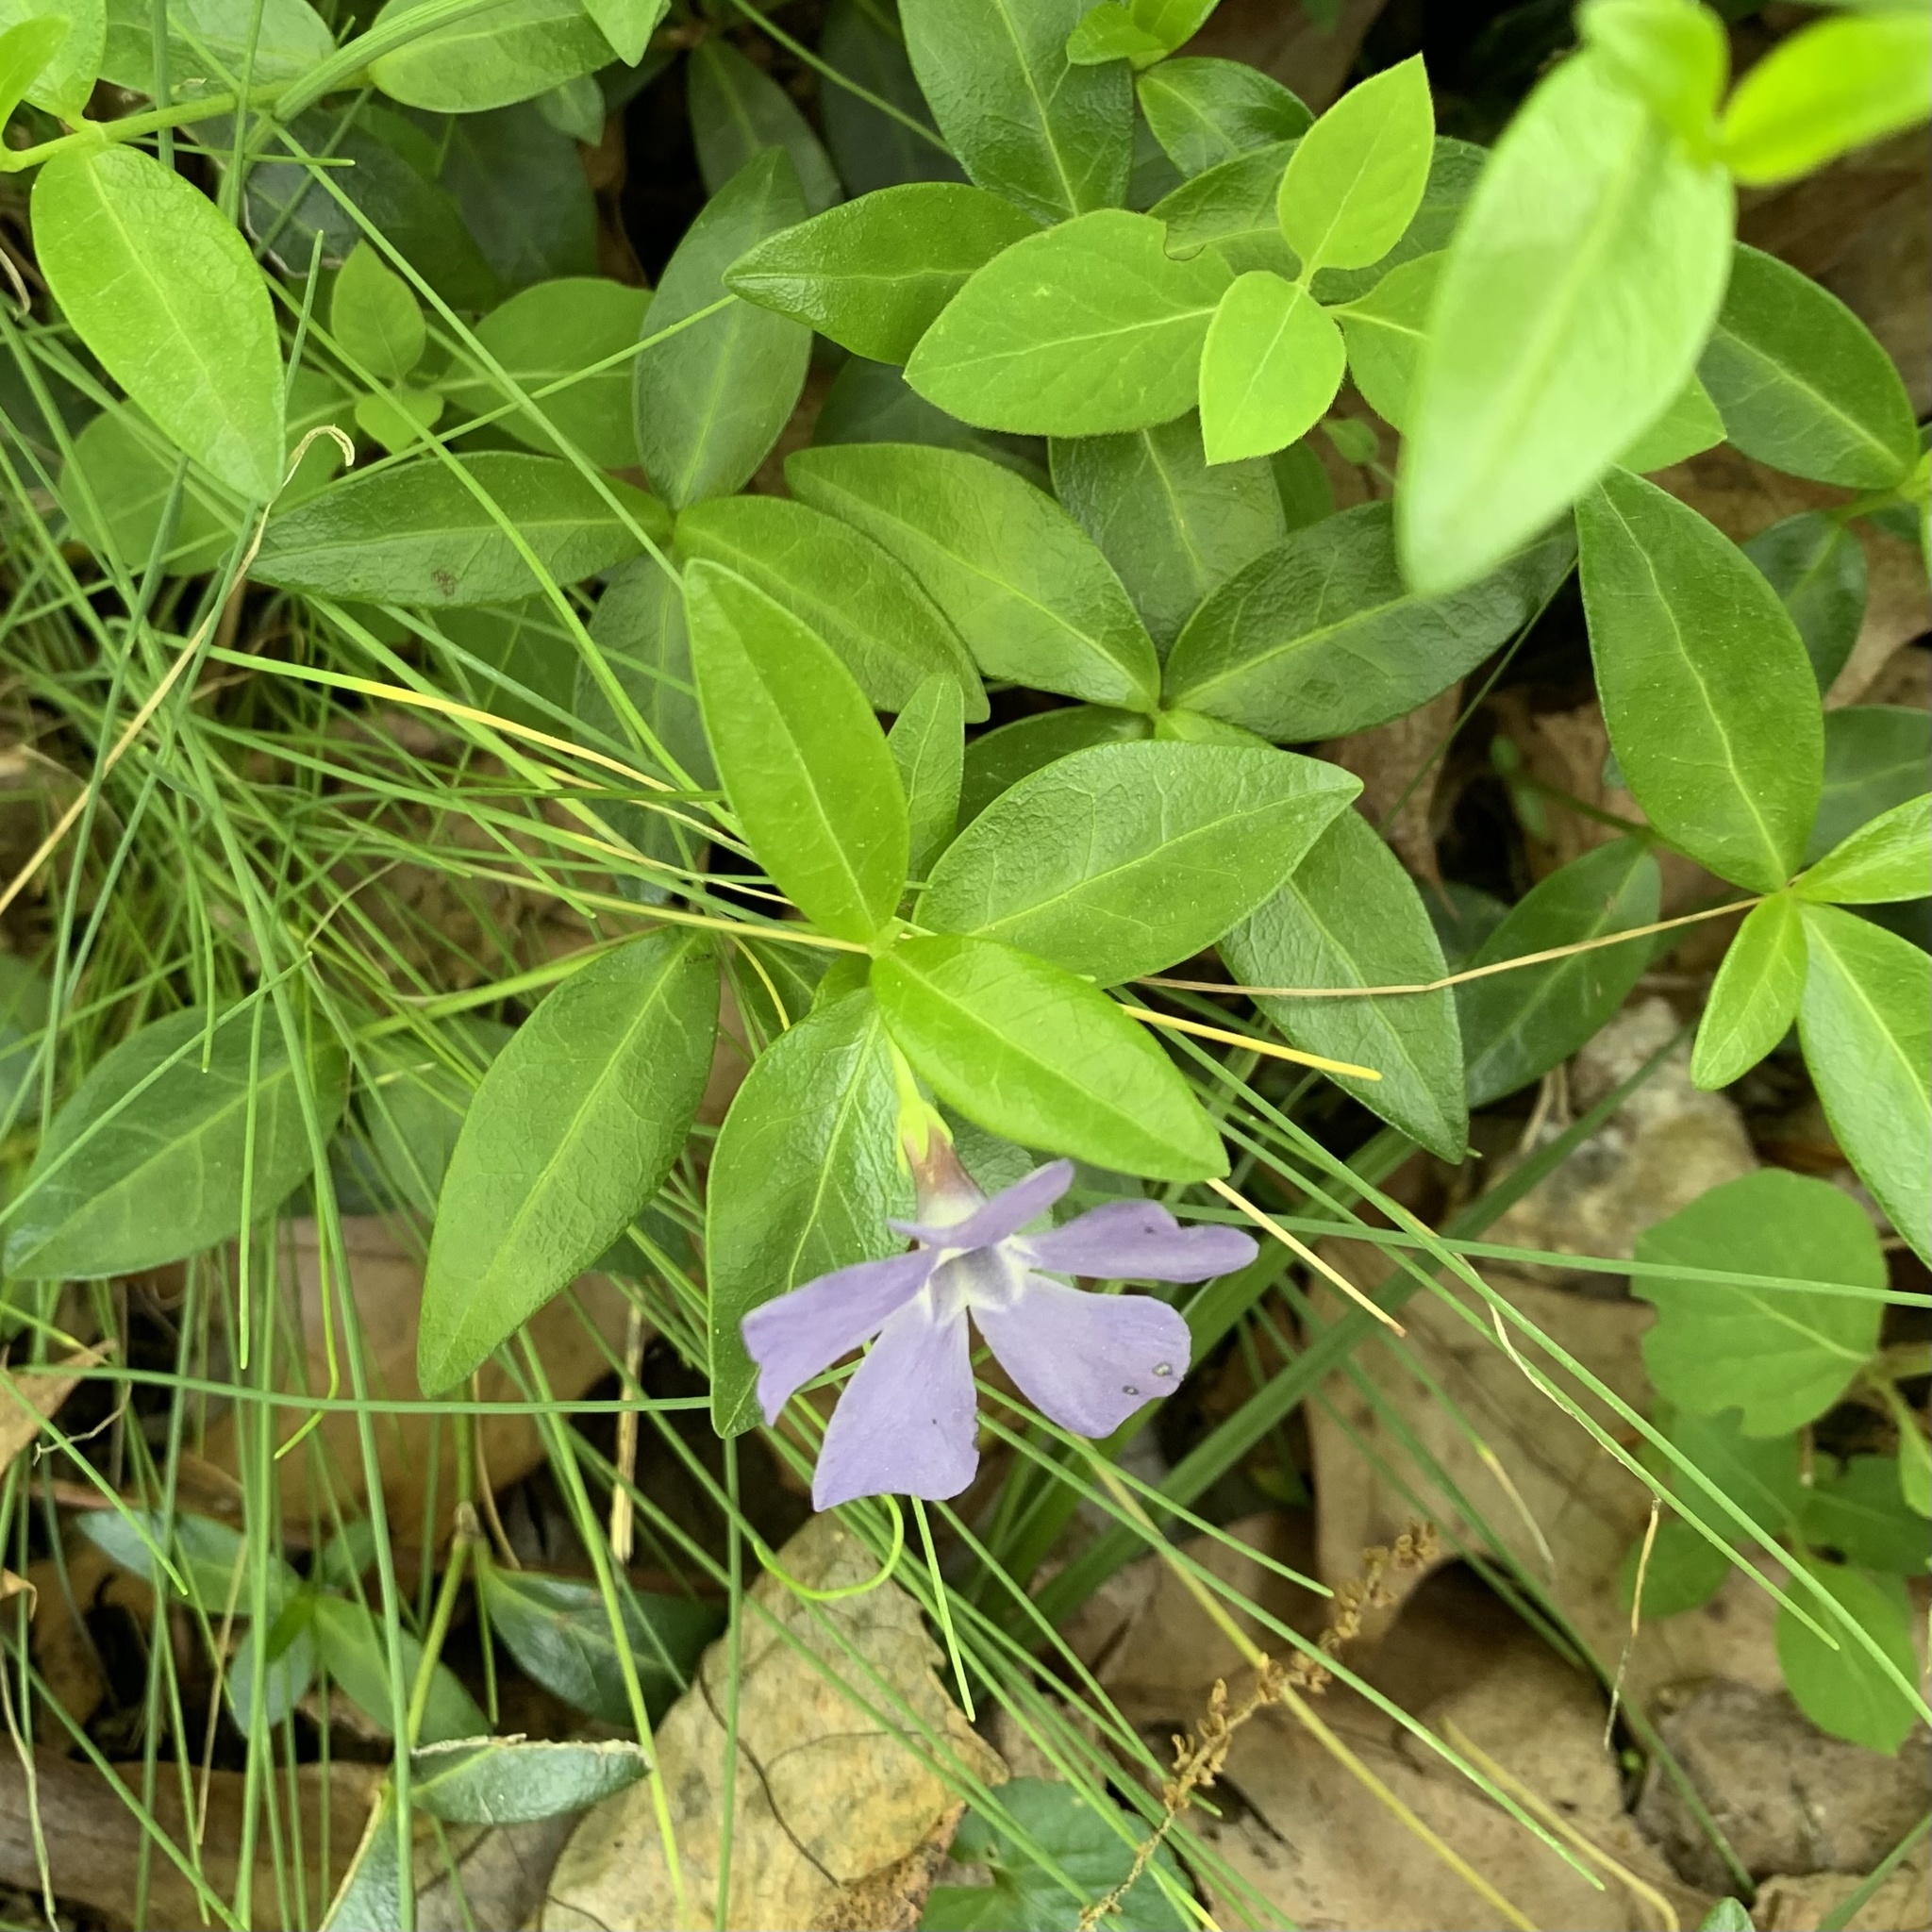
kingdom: Plantae
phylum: Tracheophyta
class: Magnoliopsida
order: Gentianales
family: Apocynaceae
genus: Vinca
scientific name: Vinca minor
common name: Lesser periwinkle
